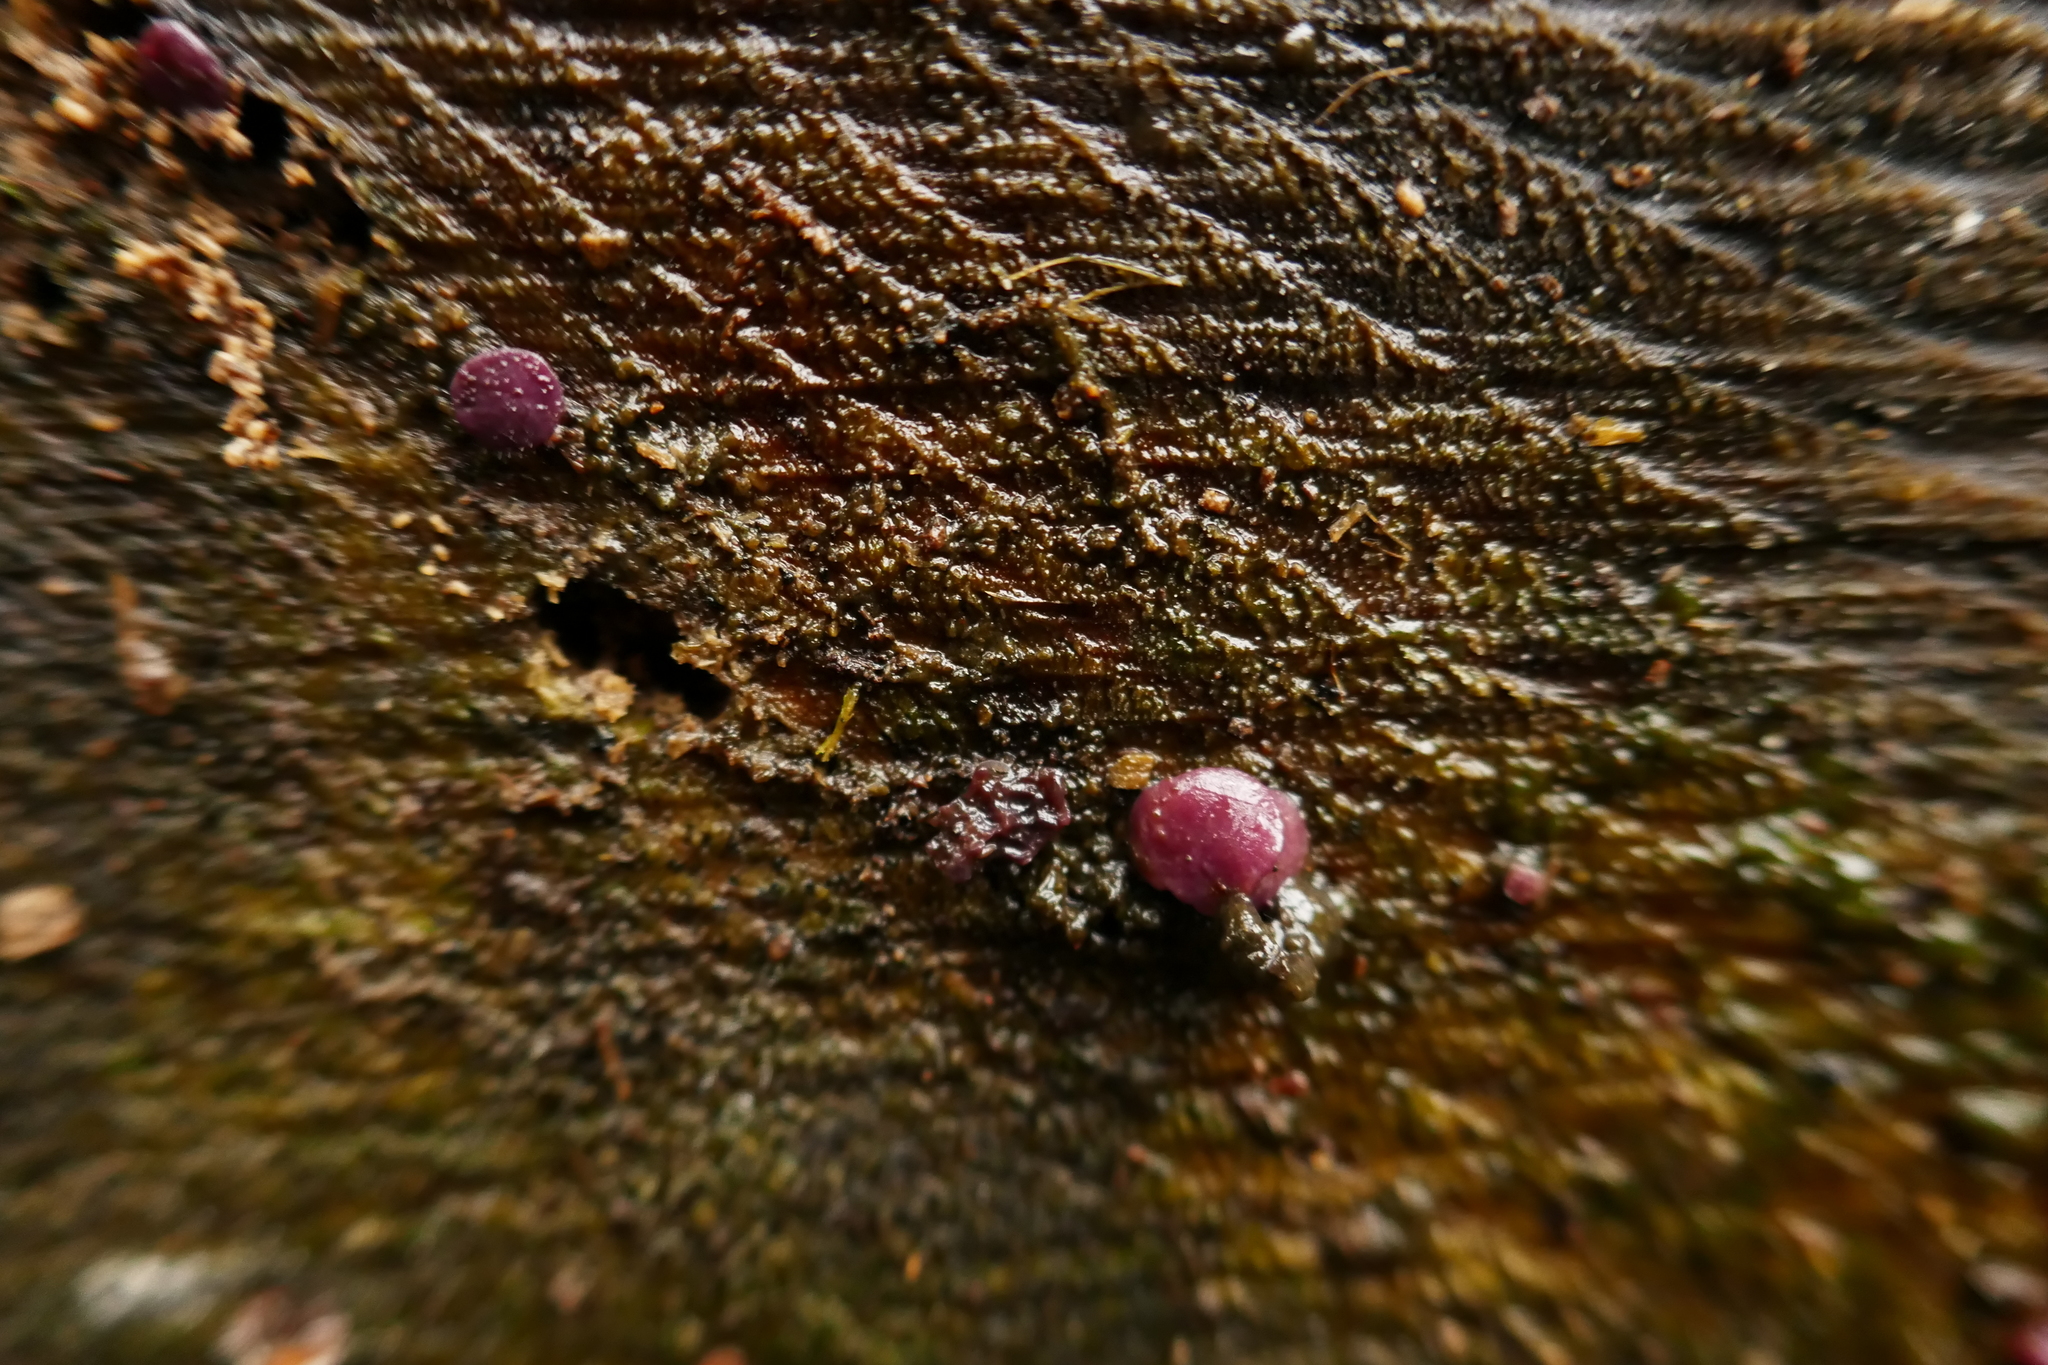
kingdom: Fungi
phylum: Ascomycota
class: Leotiomycetes
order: Helotiales
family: Gelatinodiscaceae
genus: Ascocoryne
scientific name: Ascocoryne sarcoides
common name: Purple jellydisc
